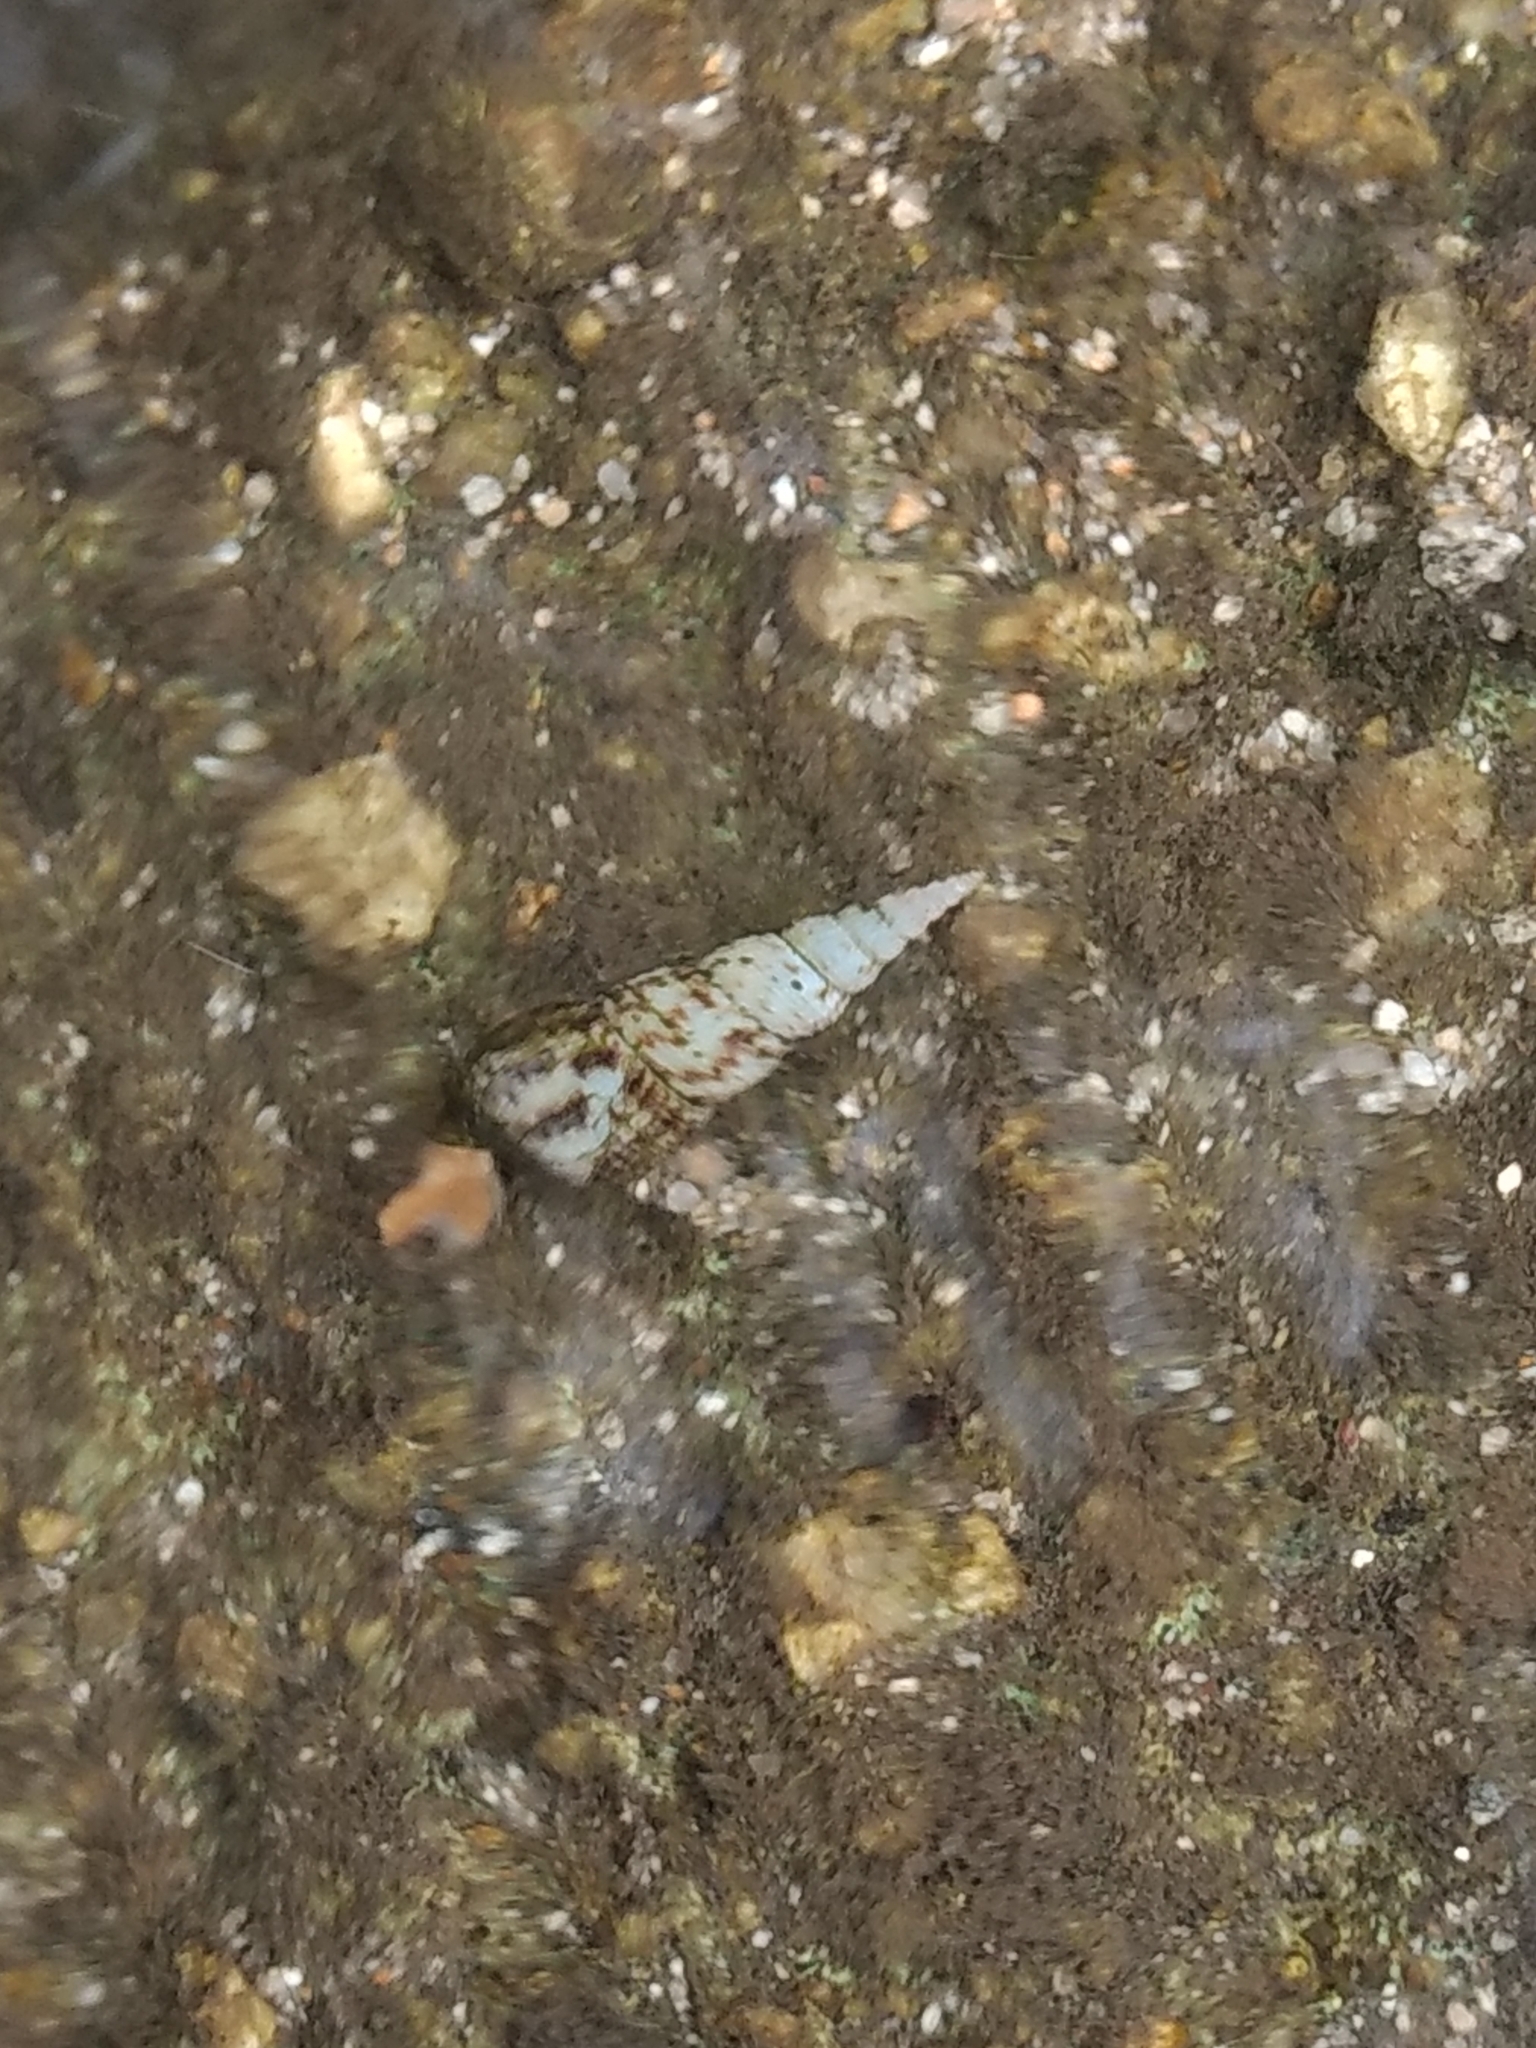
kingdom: Animalia
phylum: Mollusca
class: Gastropoda
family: Thiaridae
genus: Melanoides
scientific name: Melanoides tuberculata
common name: Red-rim melania
